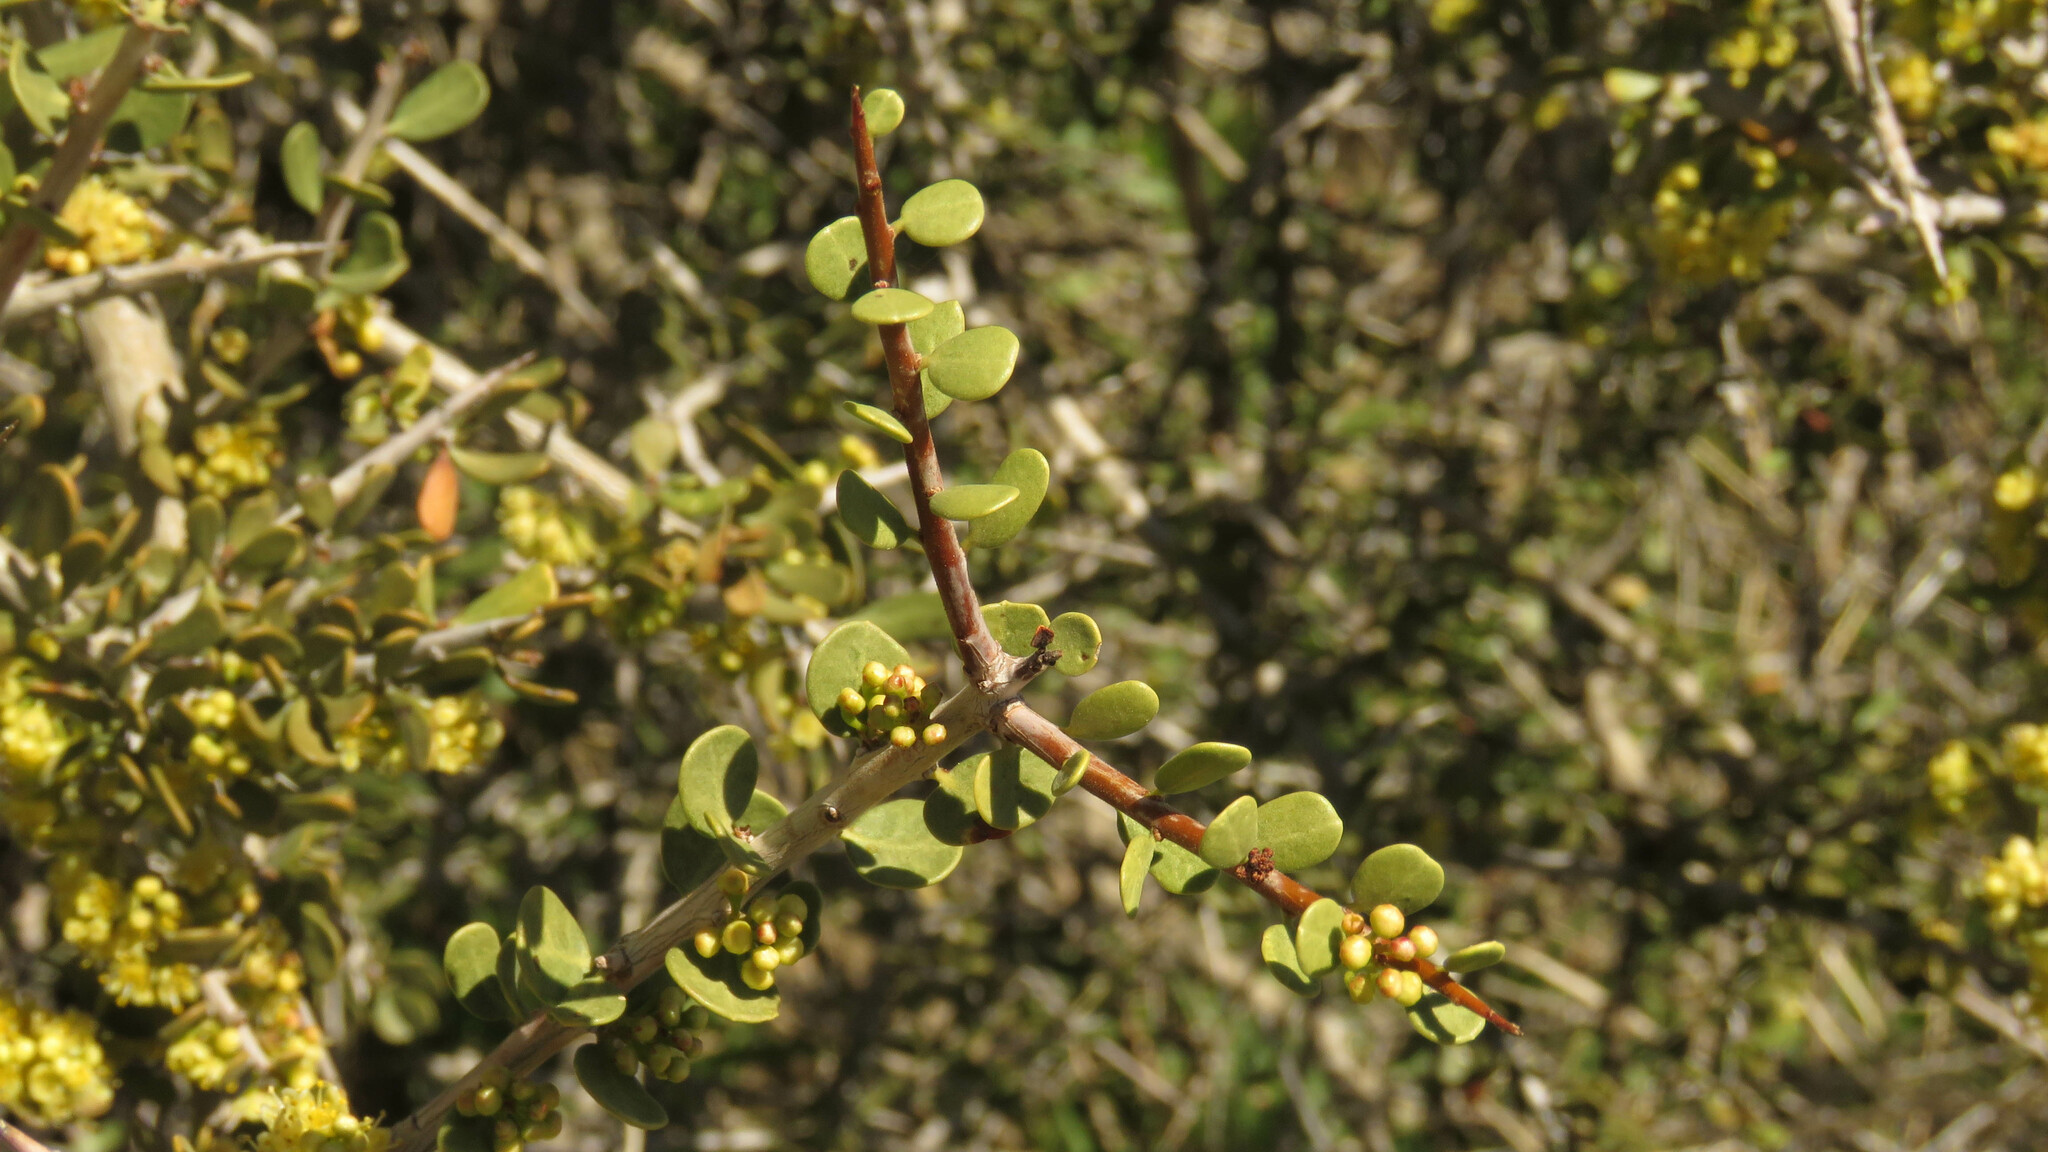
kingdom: Plantae
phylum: Tracheophyta
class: Magnoliopsida
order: Sapindales
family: Anacardiaceae
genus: Schinus
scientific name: Schinus johnstonii
